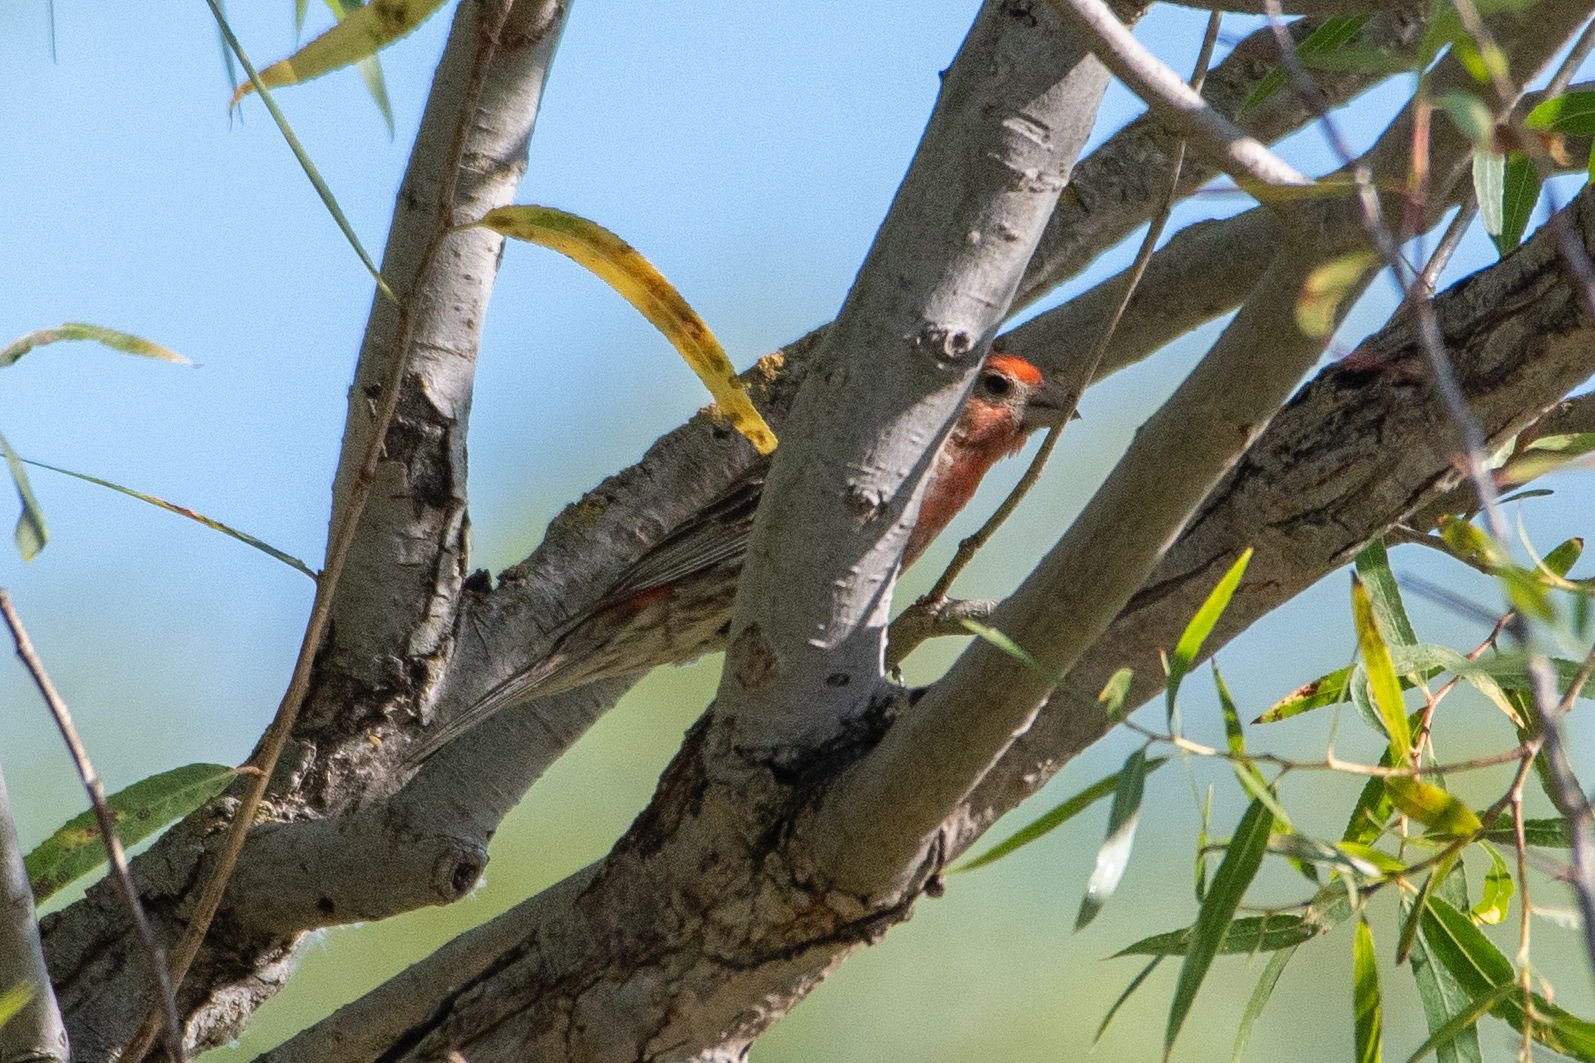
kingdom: Animalia
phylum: Chordata
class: Aves
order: Passeriformes
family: Fringillidae
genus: Haemorhous
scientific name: Haemorhous mexicanus
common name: House finch
